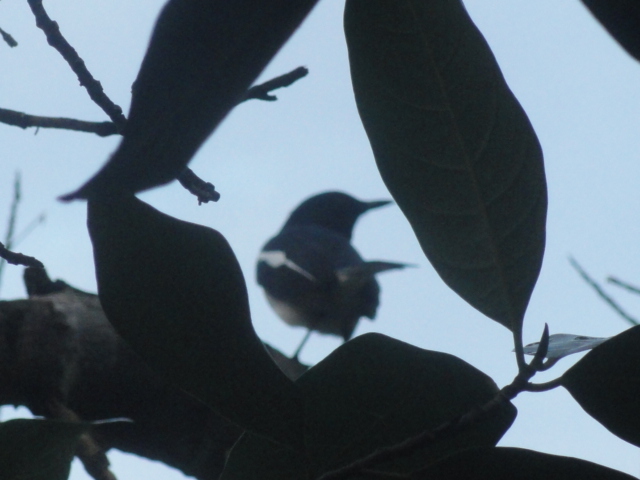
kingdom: Animalia
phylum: Chordata
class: Aves
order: Passeriformes
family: Muscicapidae
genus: Copsychus
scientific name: Copsychus saularis
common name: Oriental magpie-robin
